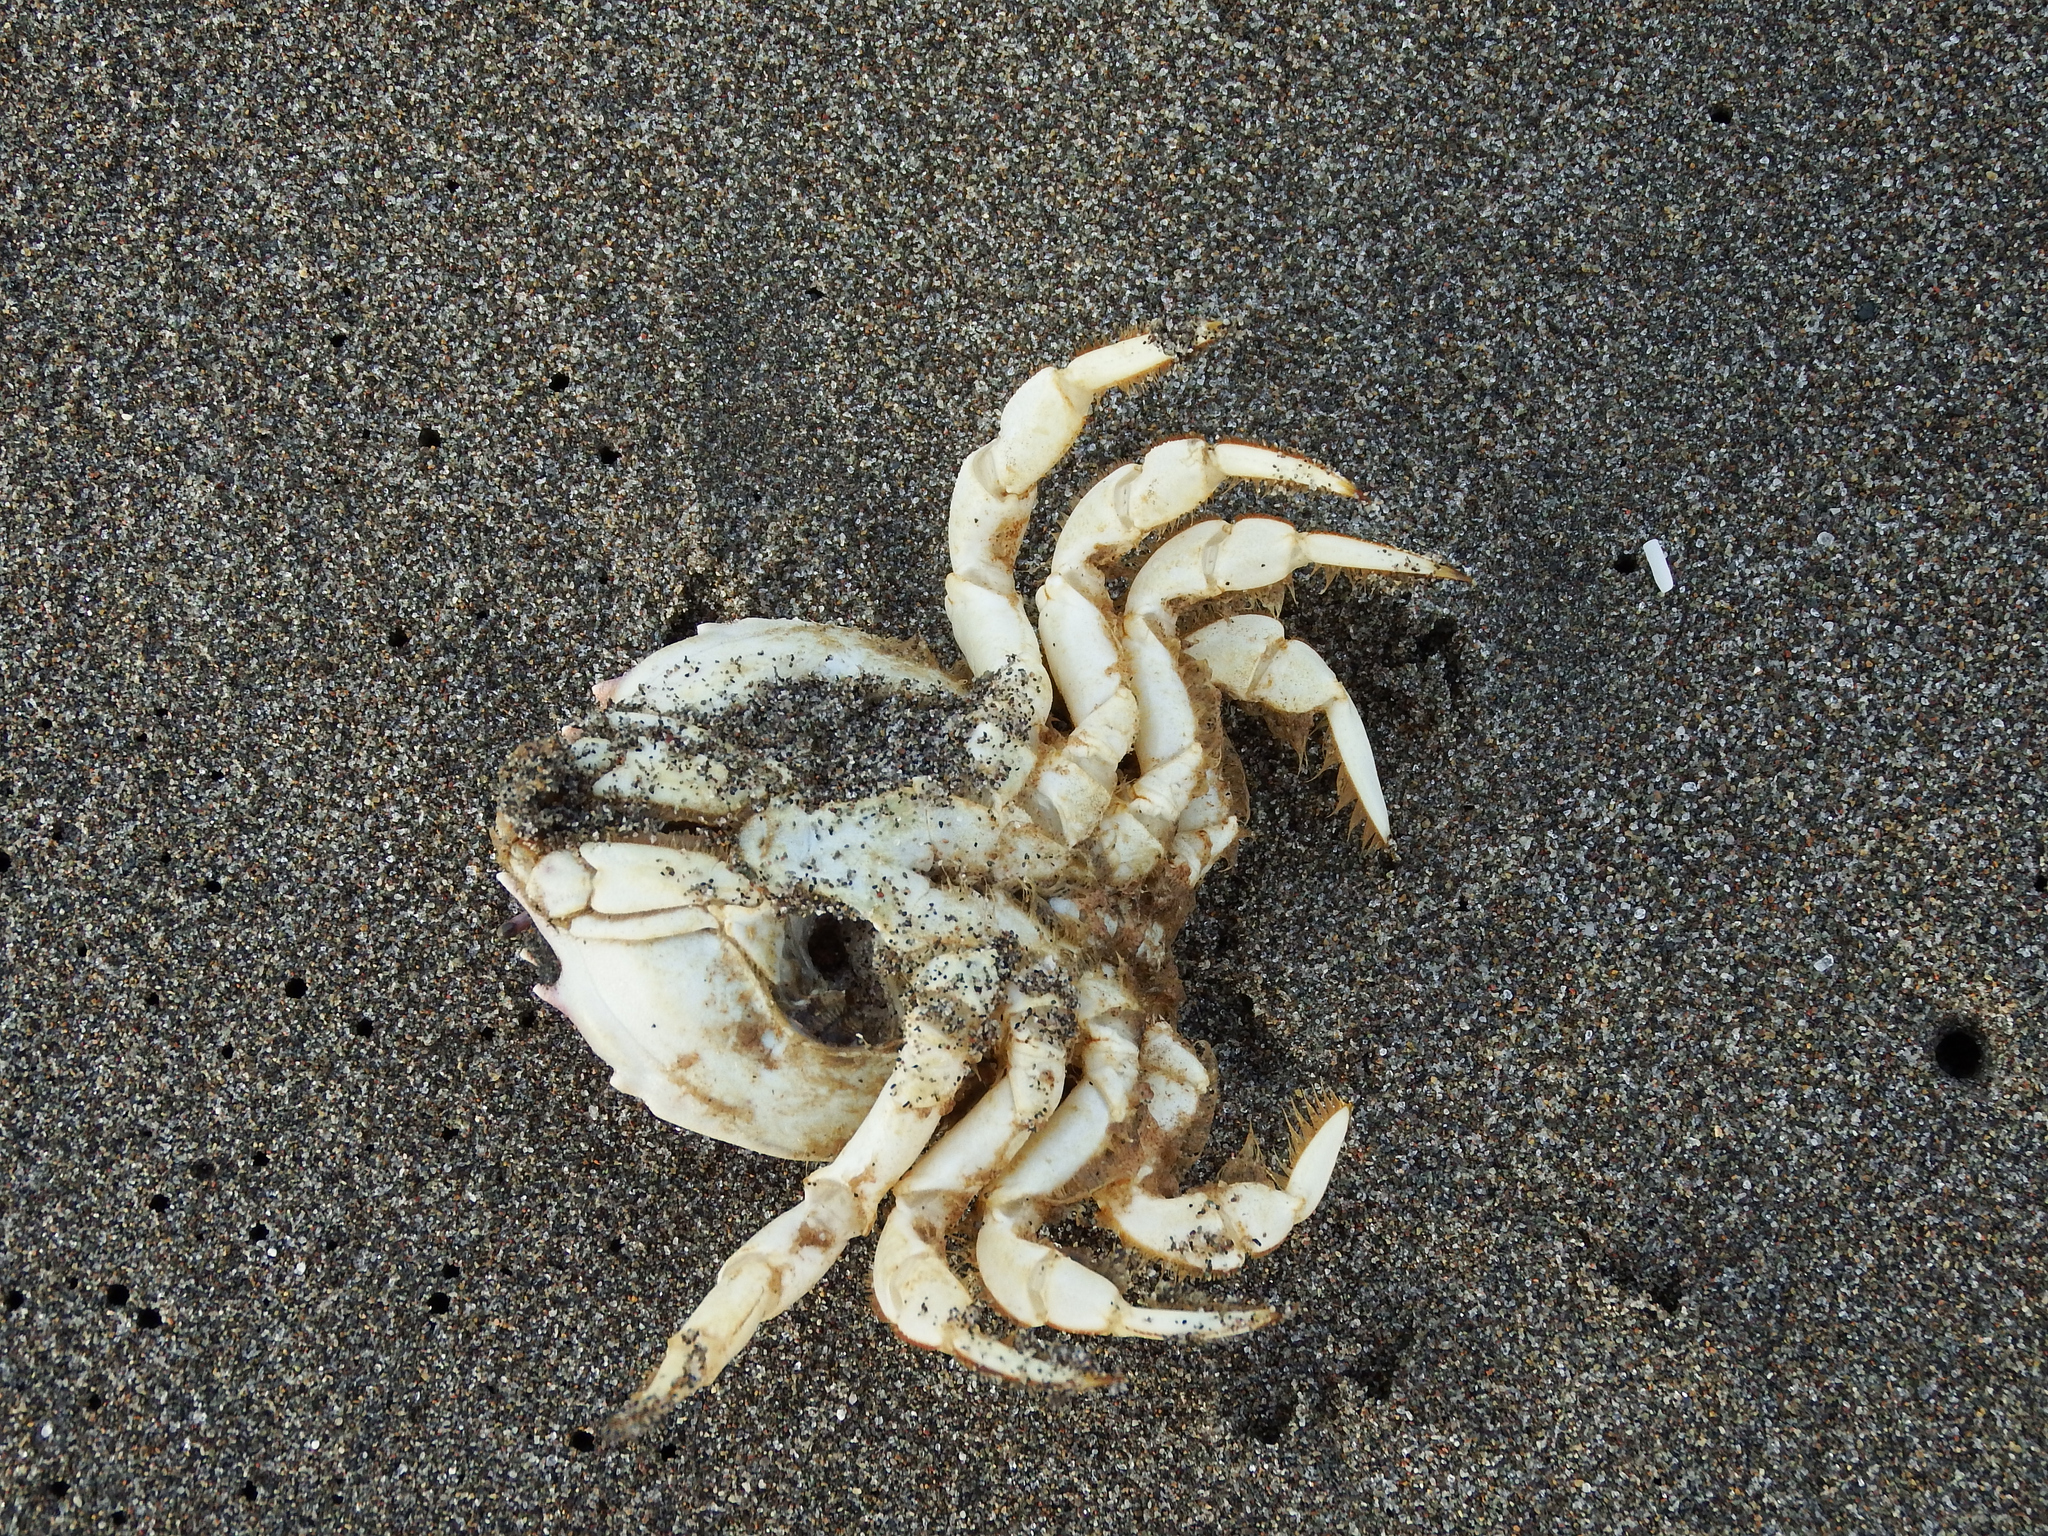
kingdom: Animalia
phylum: Arthropoda
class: Malacostraca
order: Decapoda
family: Atelecyclidae
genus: Pseudocorystes
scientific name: Pseudocorystes sicarius
